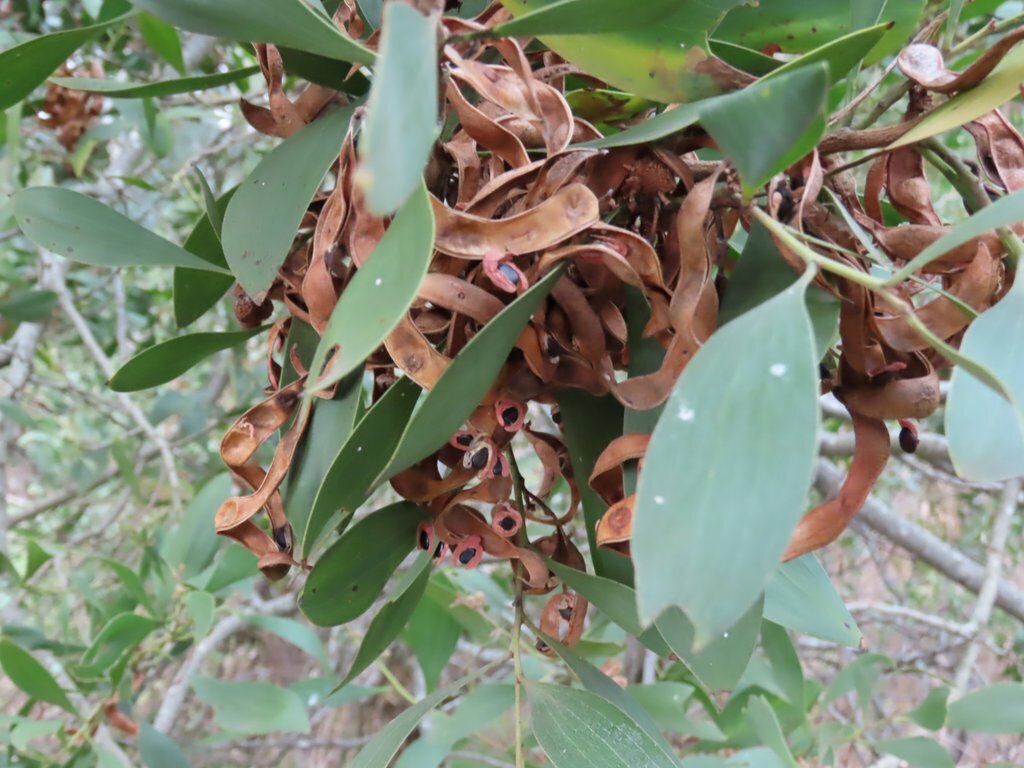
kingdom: Plantae
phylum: Tracheophyta
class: Magnoliopsida
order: Fabales
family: Fabaceae
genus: Acacia
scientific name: Acacia melanoxylon
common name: Blackwood
